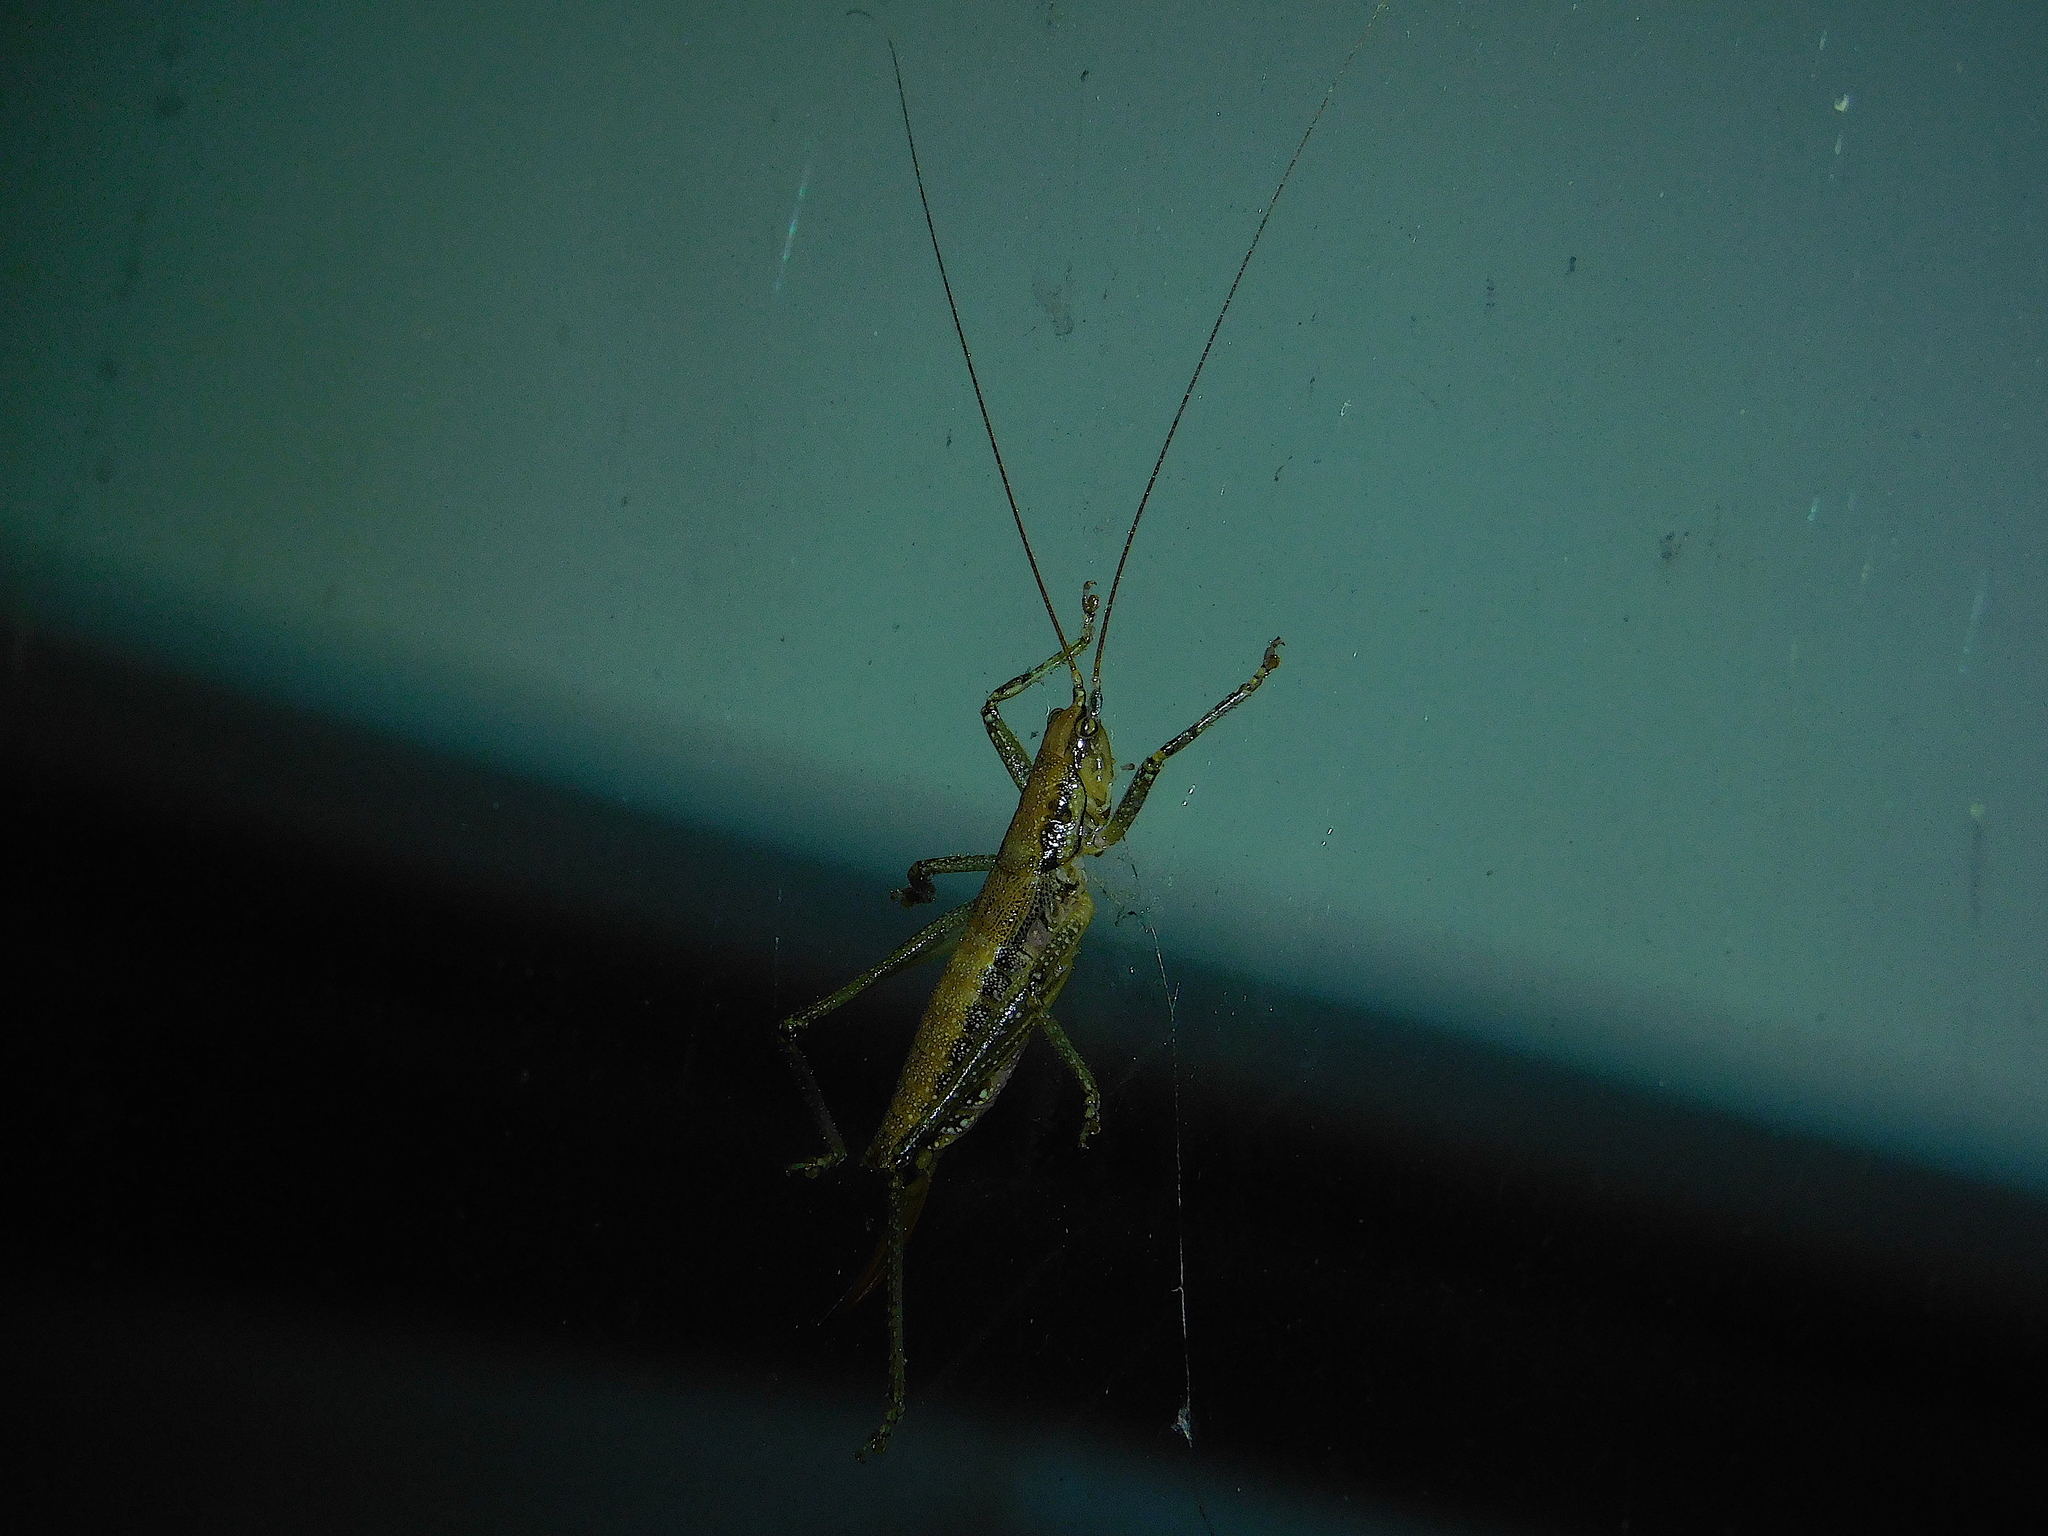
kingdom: Animalia
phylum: Arthropoda
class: Insecta
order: Orthoptera
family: Tettigoniidae
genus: Coptaspis
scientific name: Coptaspis lateralis
